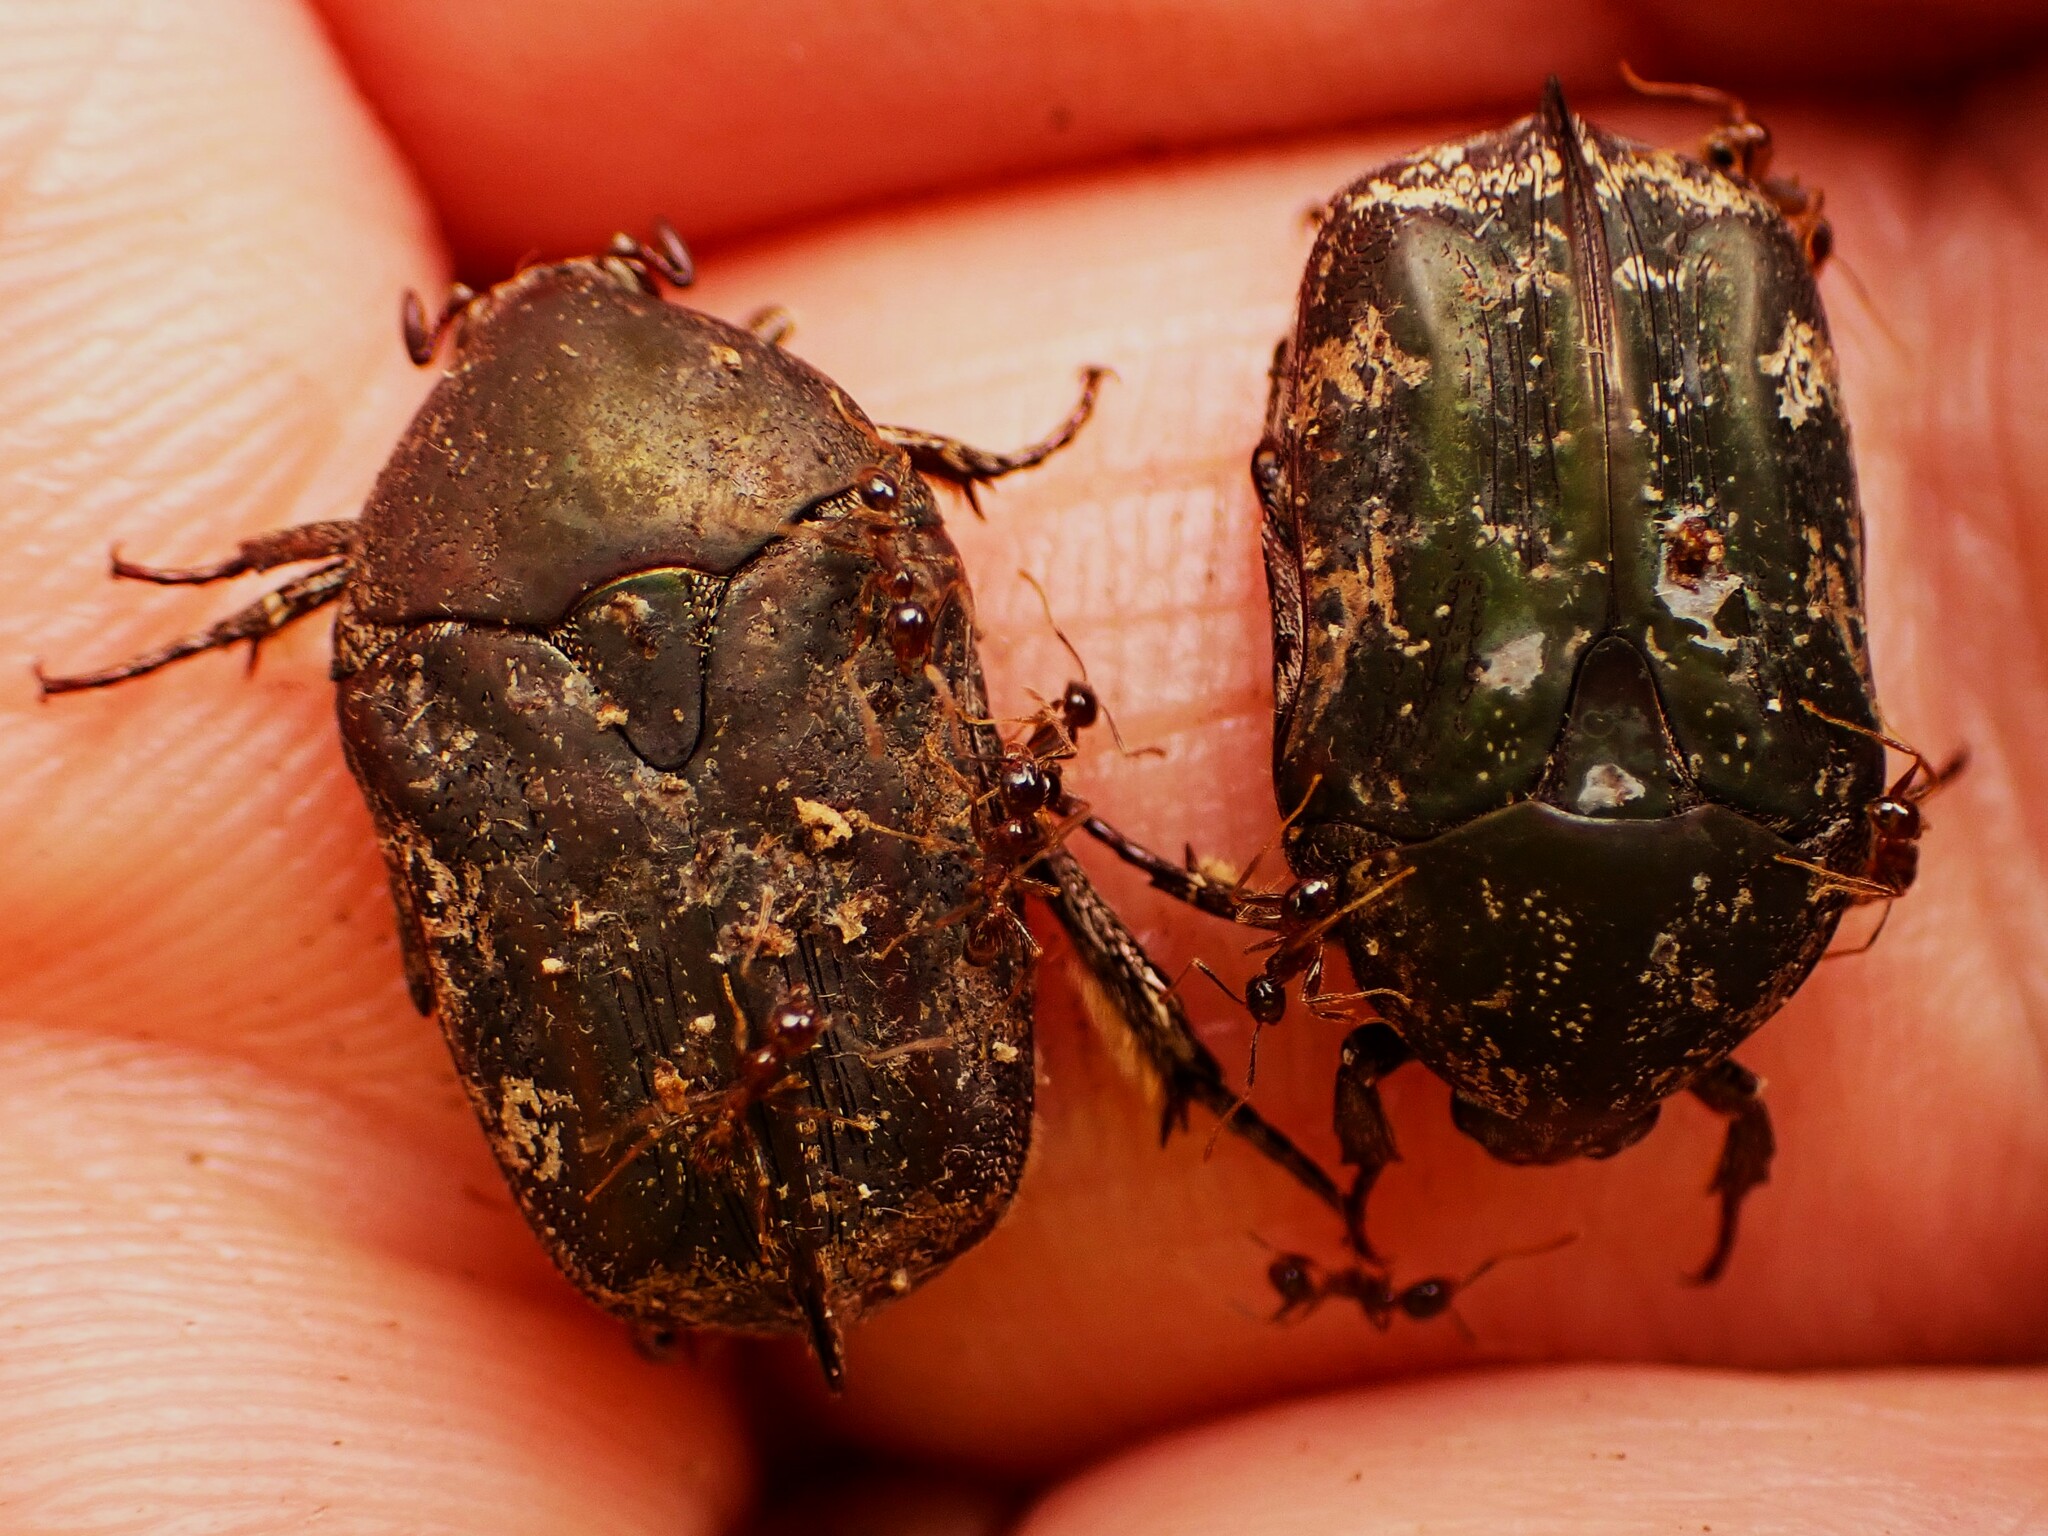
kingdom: Animalia
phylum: Arthropoda
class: Insecta
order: Coleoptera
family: Scarabaeidae
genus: Protaetia
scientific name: Protaetia fusca
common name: Mango flower beetle
